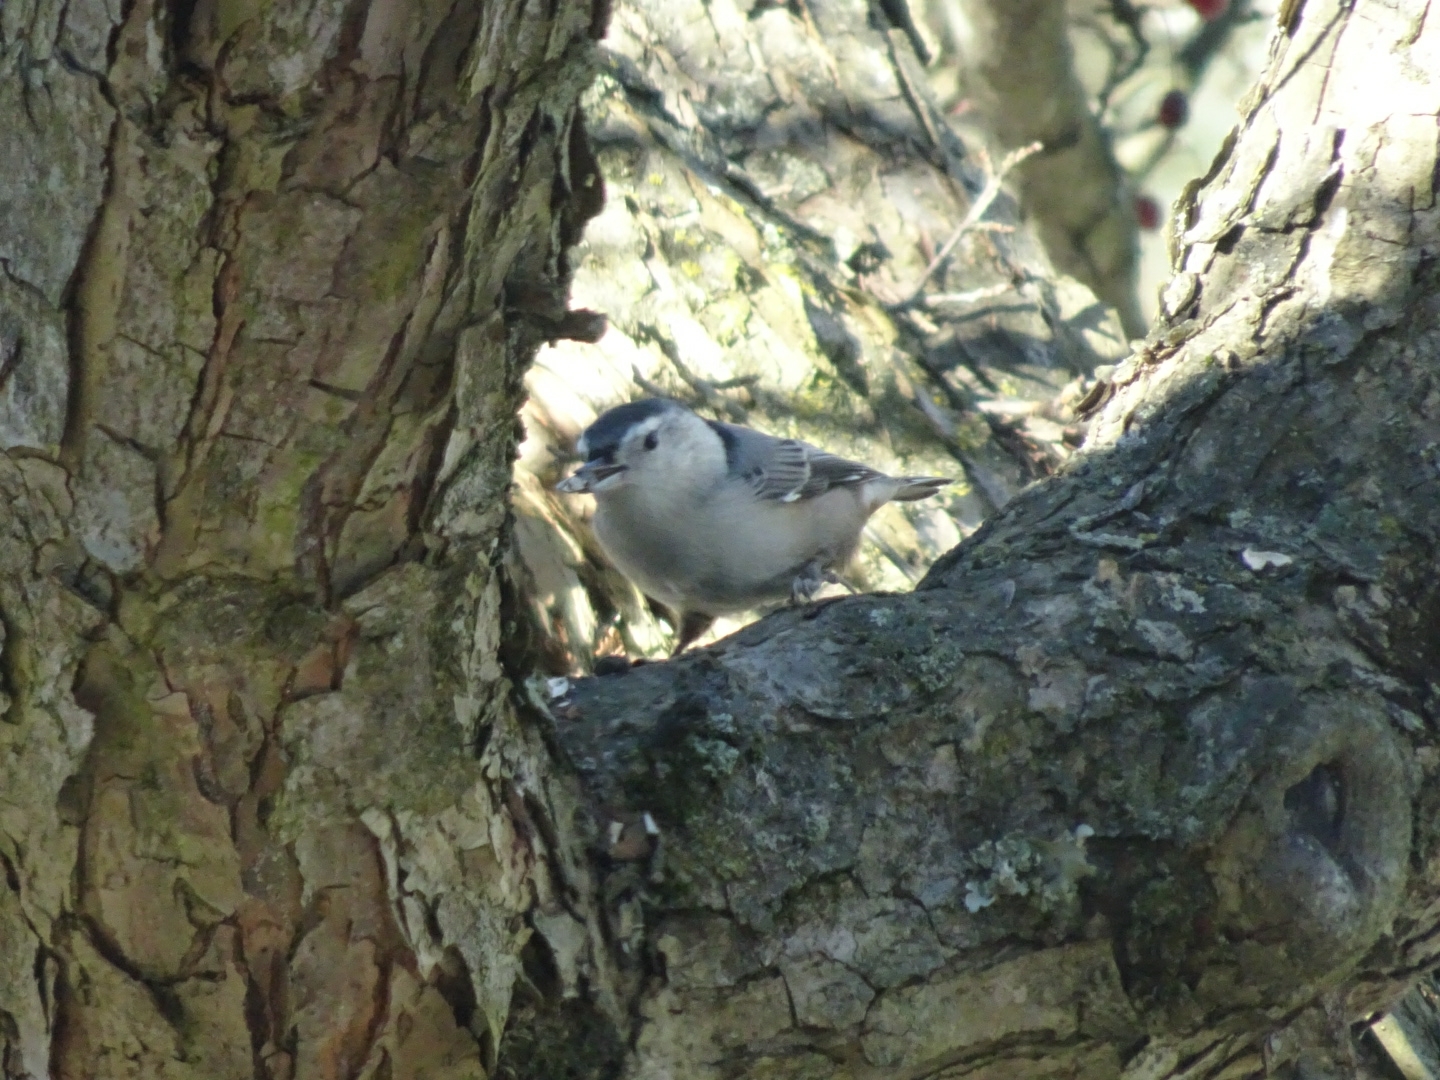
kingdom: Animalia
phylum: Chordata
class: Aves
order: Passeriformes
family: Sittidae
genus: Sitta
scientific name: Sitta carolinensis
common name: White-breasted nuthatch
